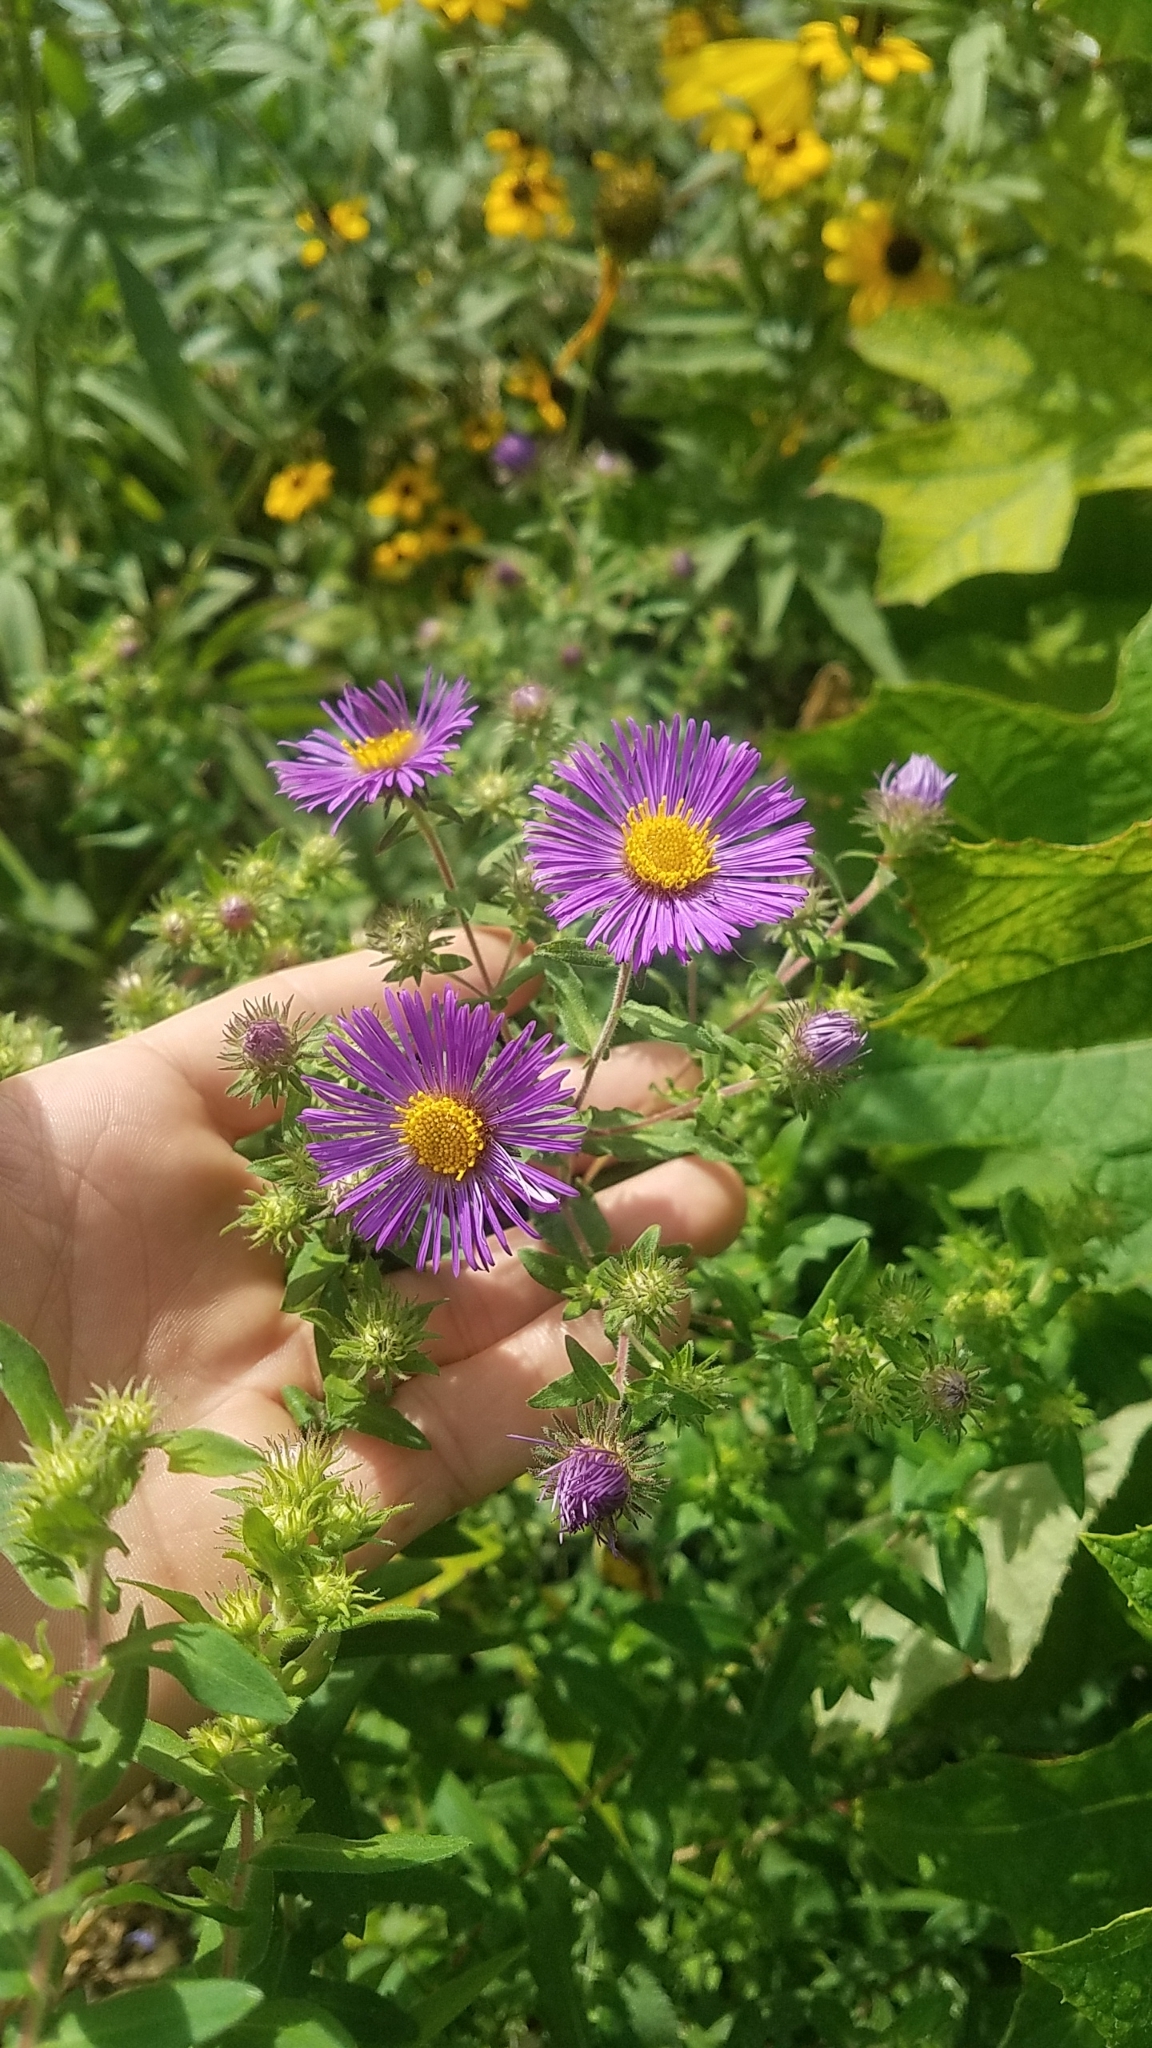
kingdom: Plantae
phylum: Tracheophyta
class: Magnoliopsida
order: Asterales
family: Asteraceae
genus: Symphyotrichum
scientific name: Symphyotrichum novae-angliae
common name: Michaelmas daisy
